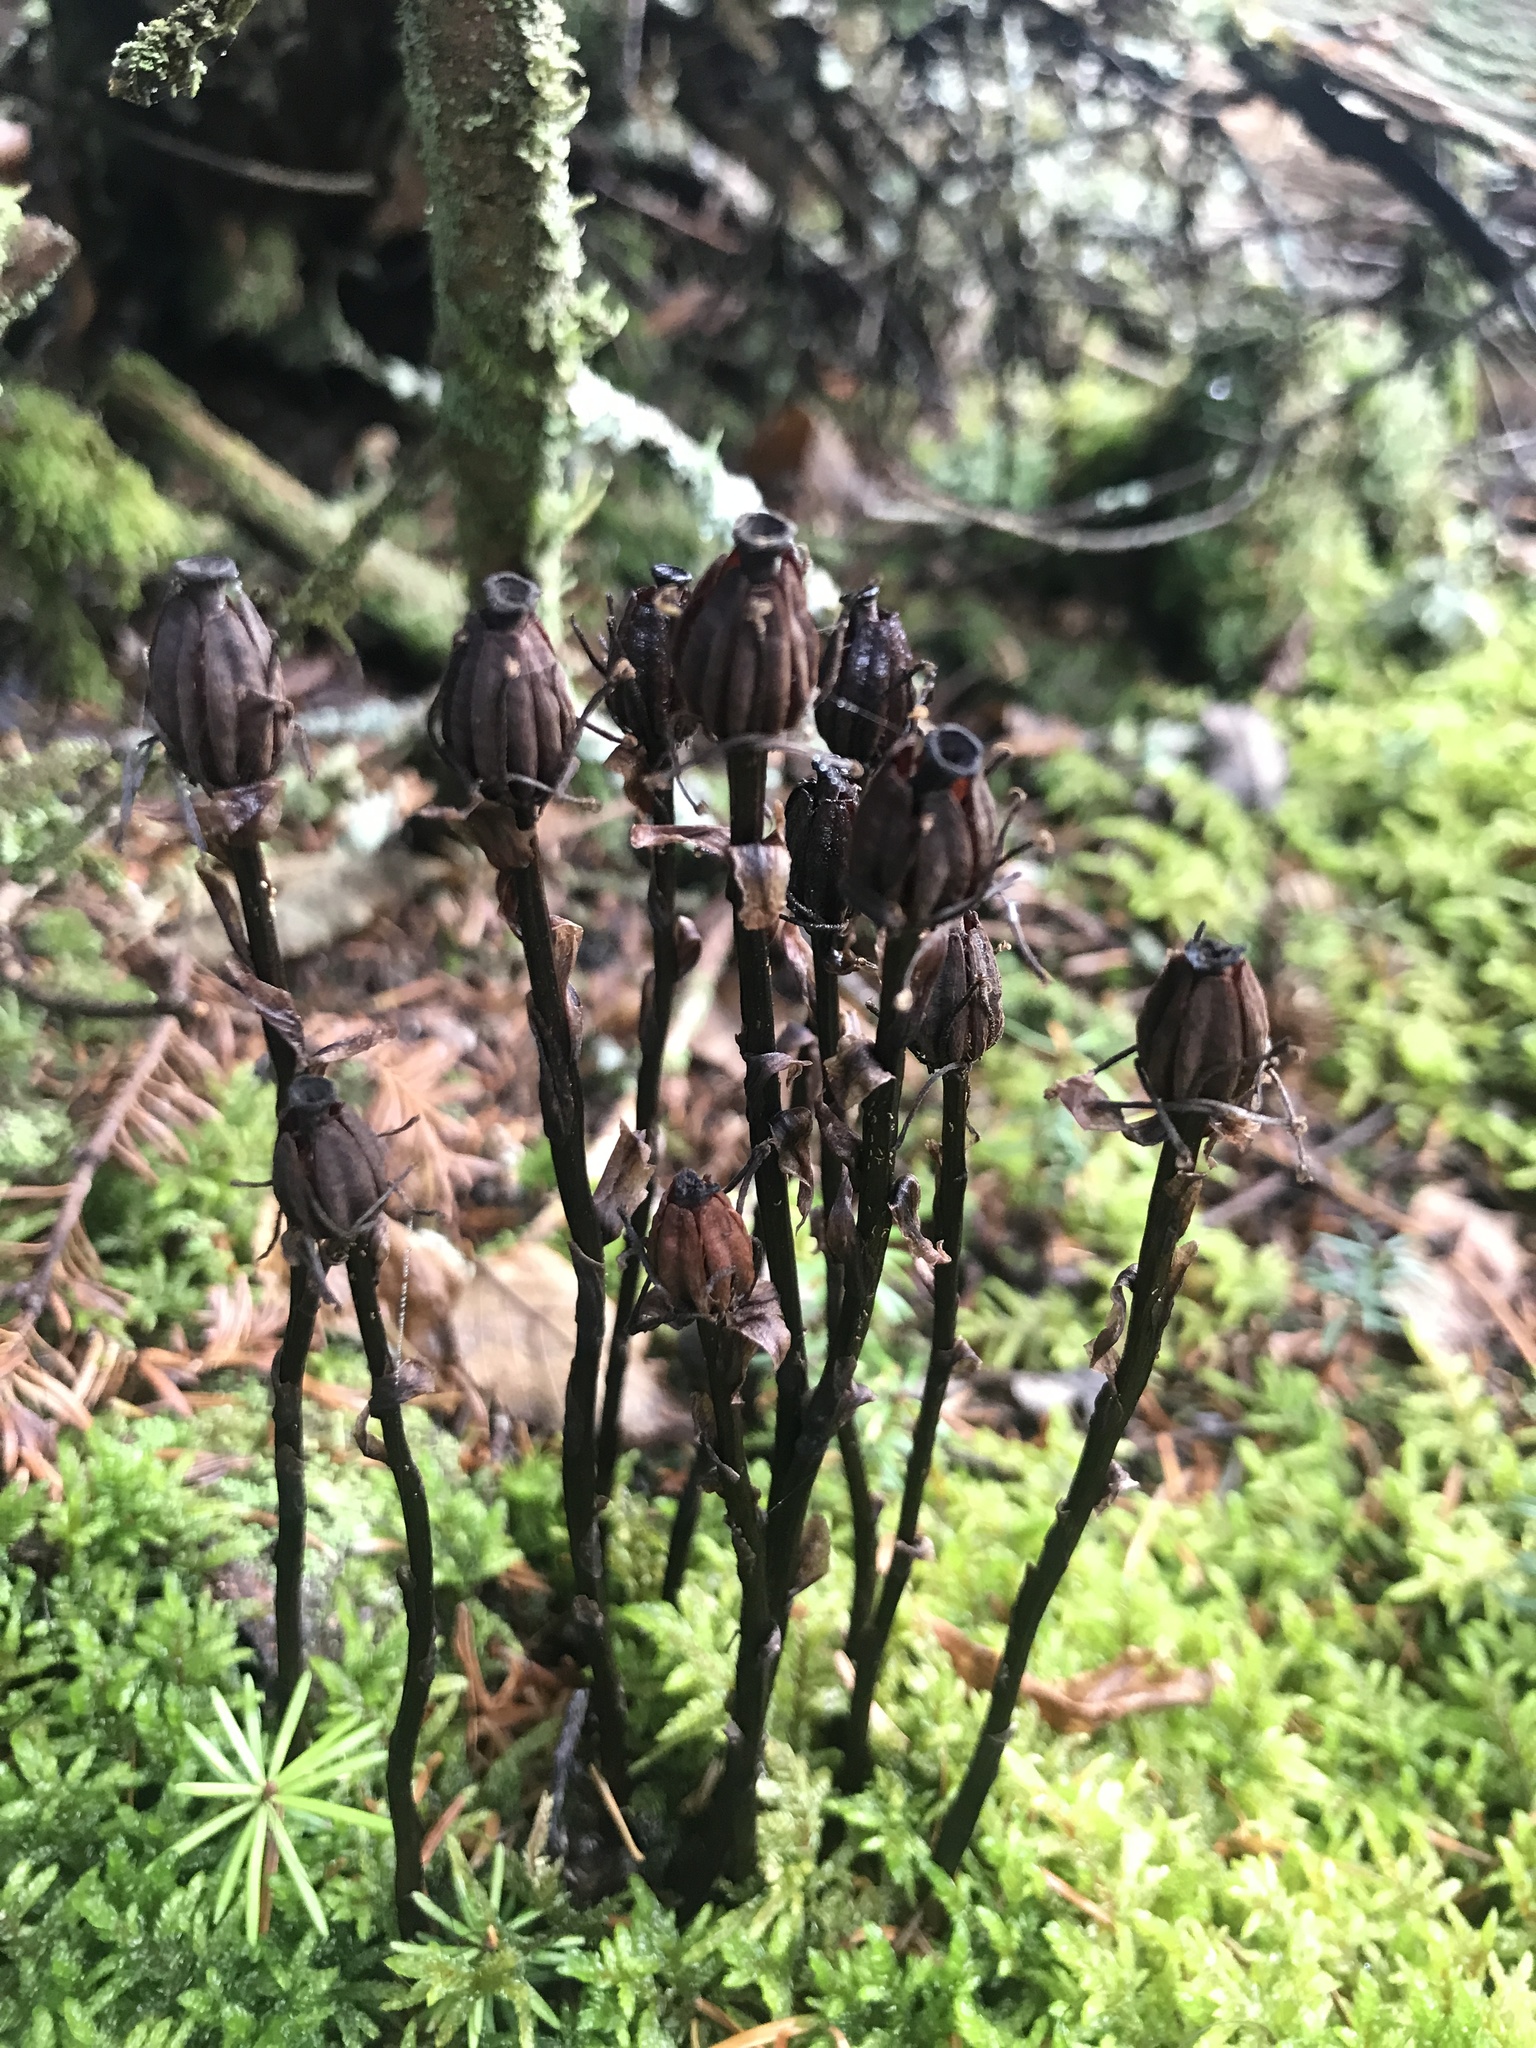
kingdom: Plantae
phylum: Tracheophyta
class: Magnoliopsida
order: Ericales
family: Ericaceae
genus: Monotropa
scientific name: Monotropa uniflora
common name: Convulsion root
